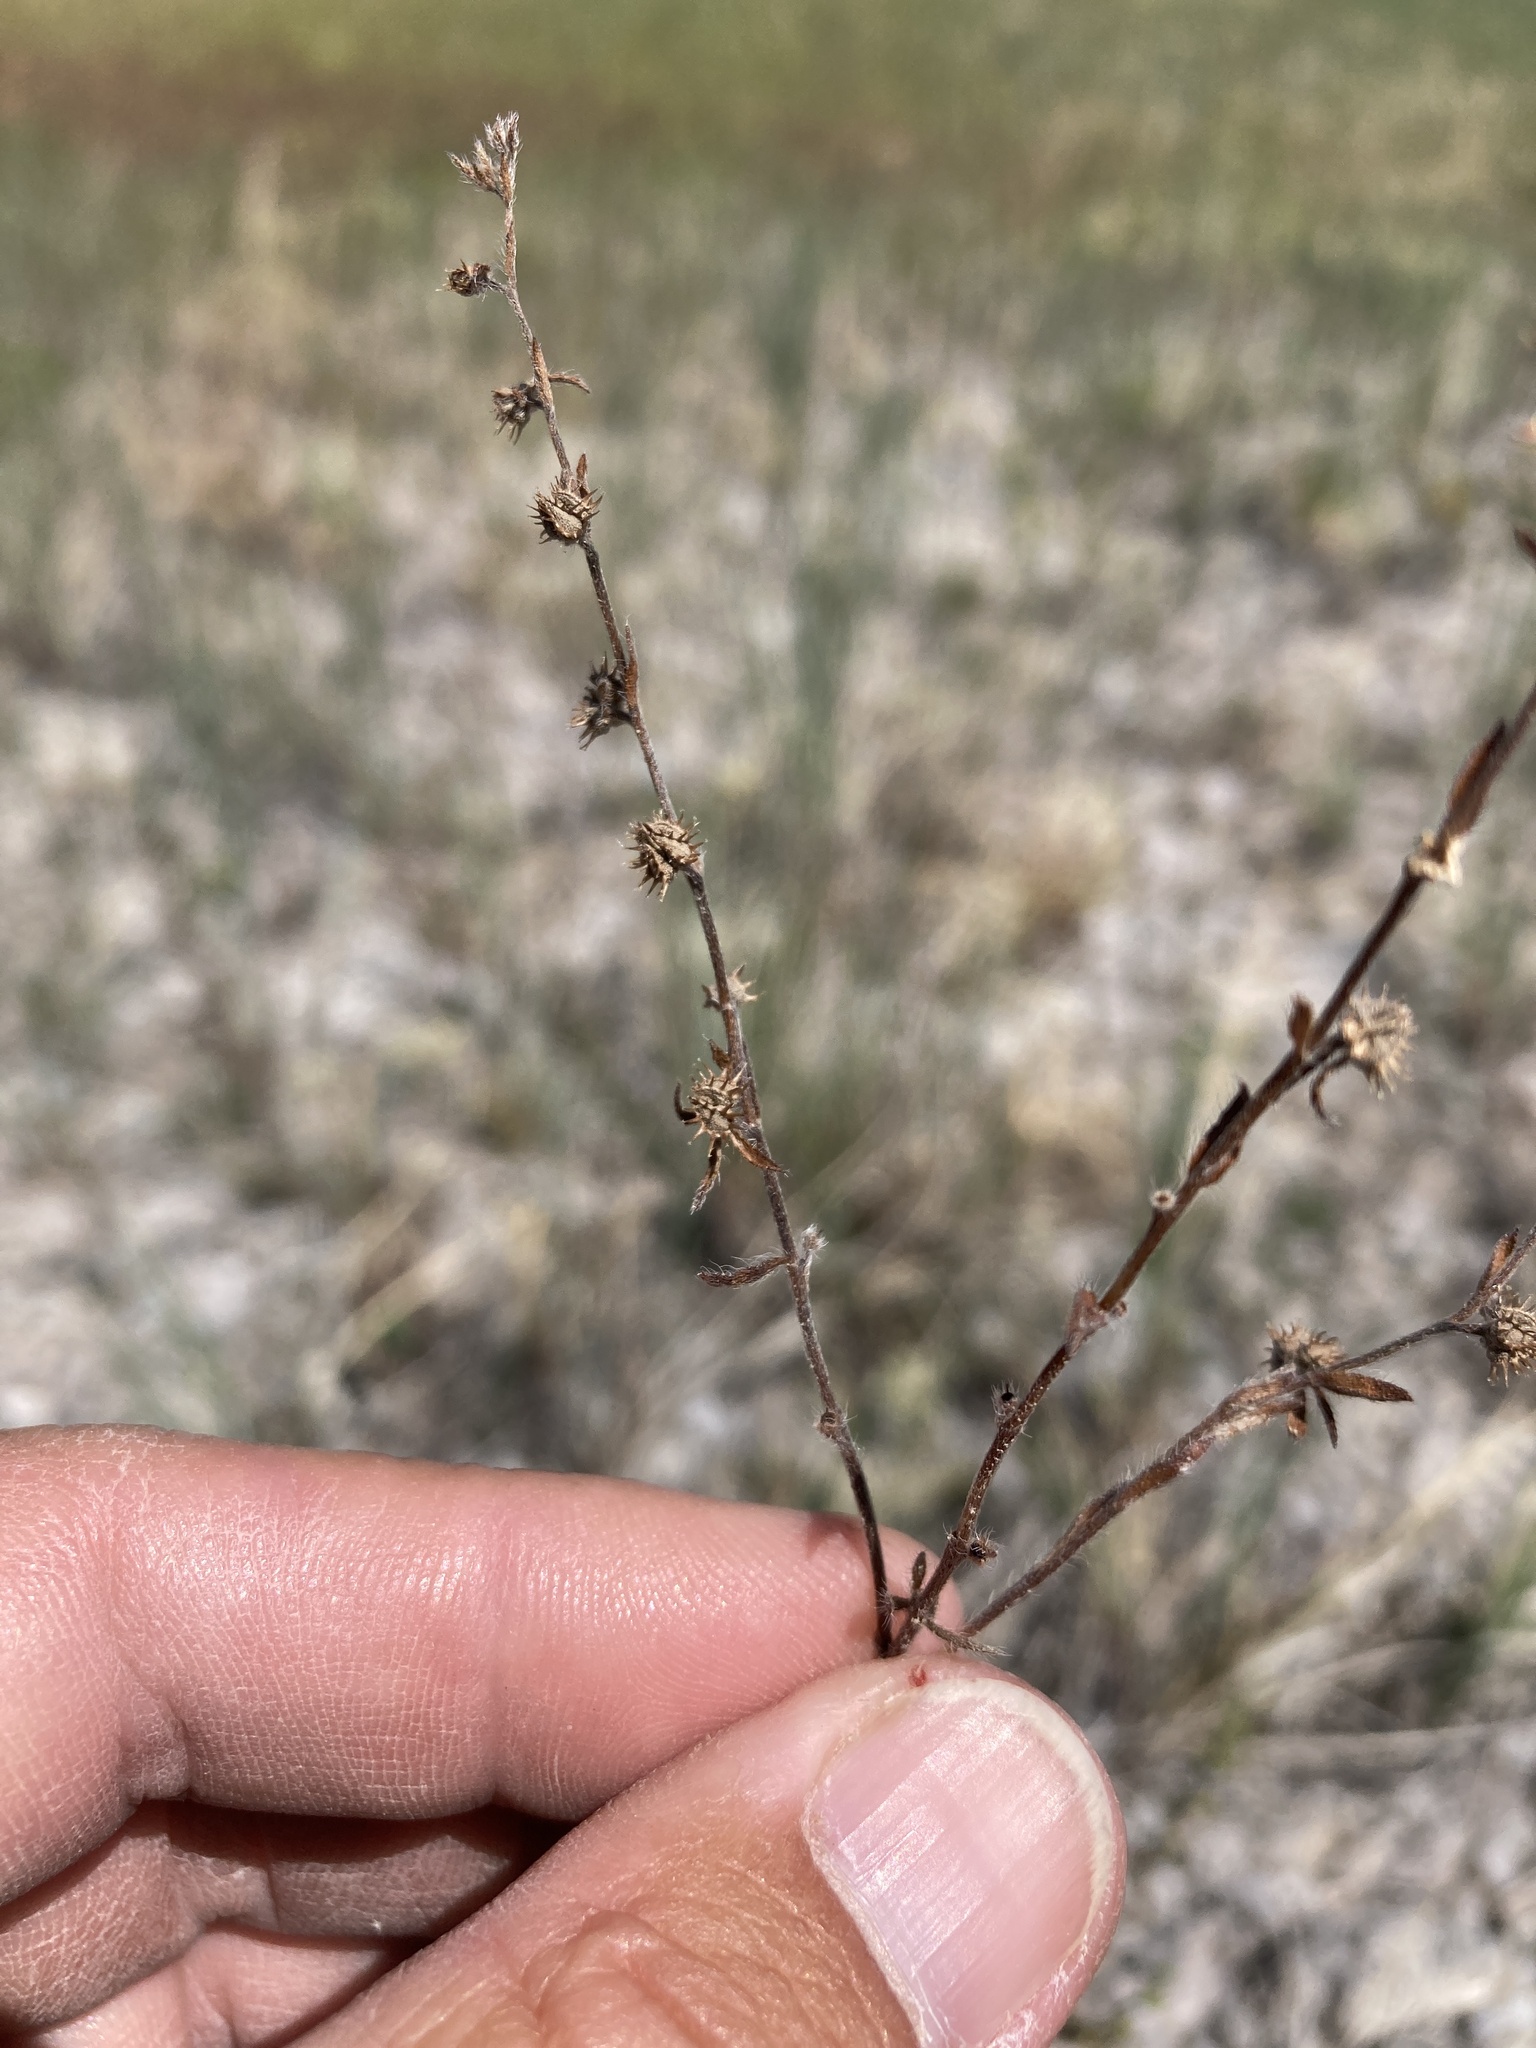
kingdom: Plantae
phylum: Tracheophyta
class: Magnoliopsida
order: Boraginales
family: Boraginaceae
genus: Lappula
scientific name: Lappula occidentalis
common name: Western stickseed
